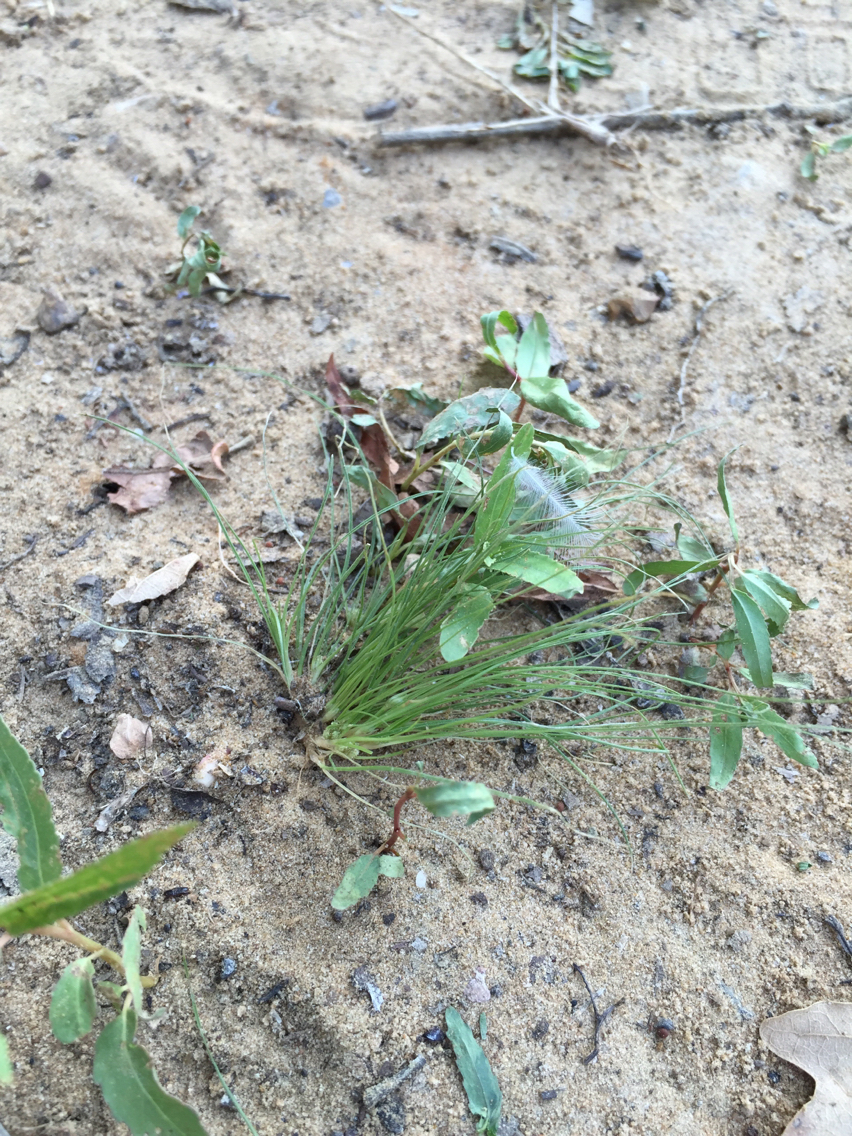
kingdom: Plantae
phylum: Tracheophyta
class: Liliopsida
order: Poales
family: Cyperaceae
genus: Fimbristylis
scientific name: Fimbristylis vahlii
